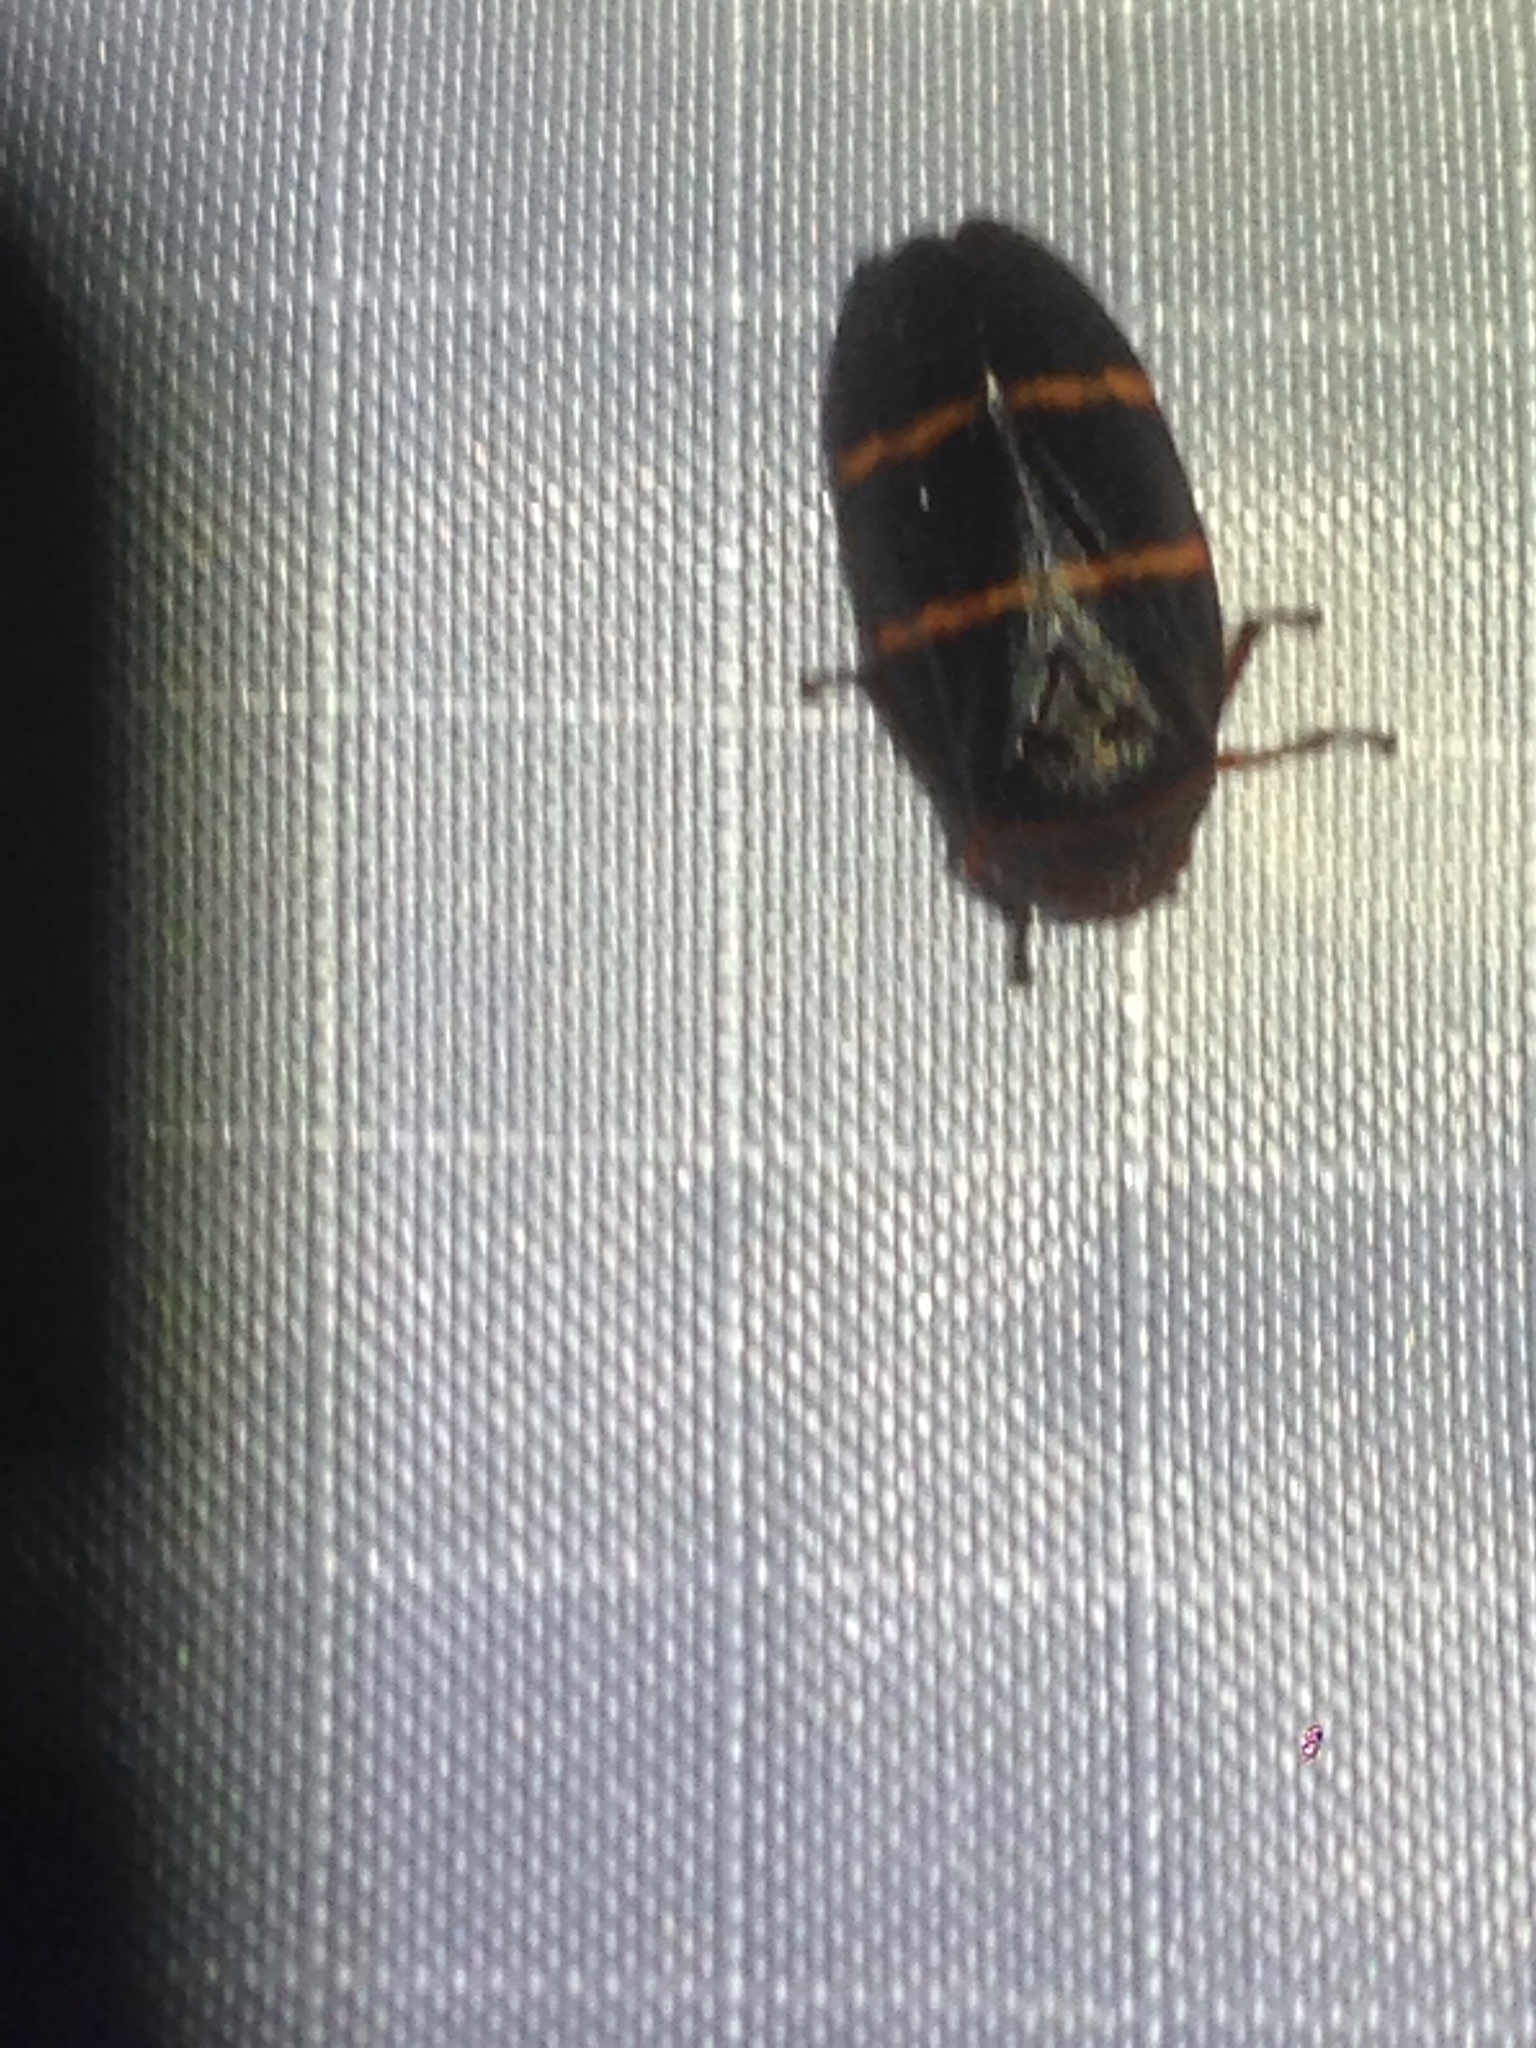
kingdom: Animalia
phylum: Arthropoda
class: Insecta
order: Hemiptera
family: Cercopidae
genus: Prosapia
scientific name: Prosapia bicincta
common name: Twolined spittlebug
